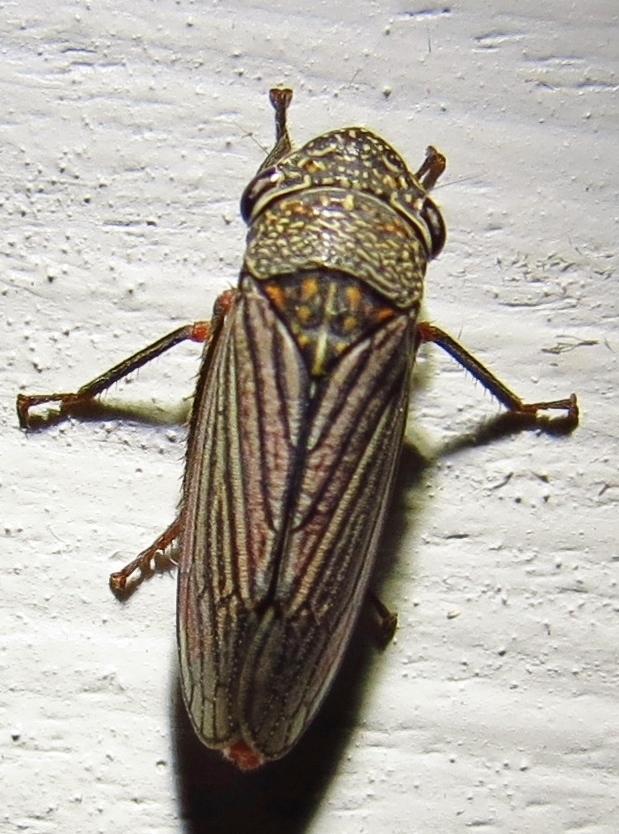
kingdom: Animalia
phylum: Arthropoda
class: Insecta
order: Hemiptera
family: Cicadellidae
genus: Cuerna
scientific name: Cuerna costalis
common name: Lateral-lined sharpshooter
